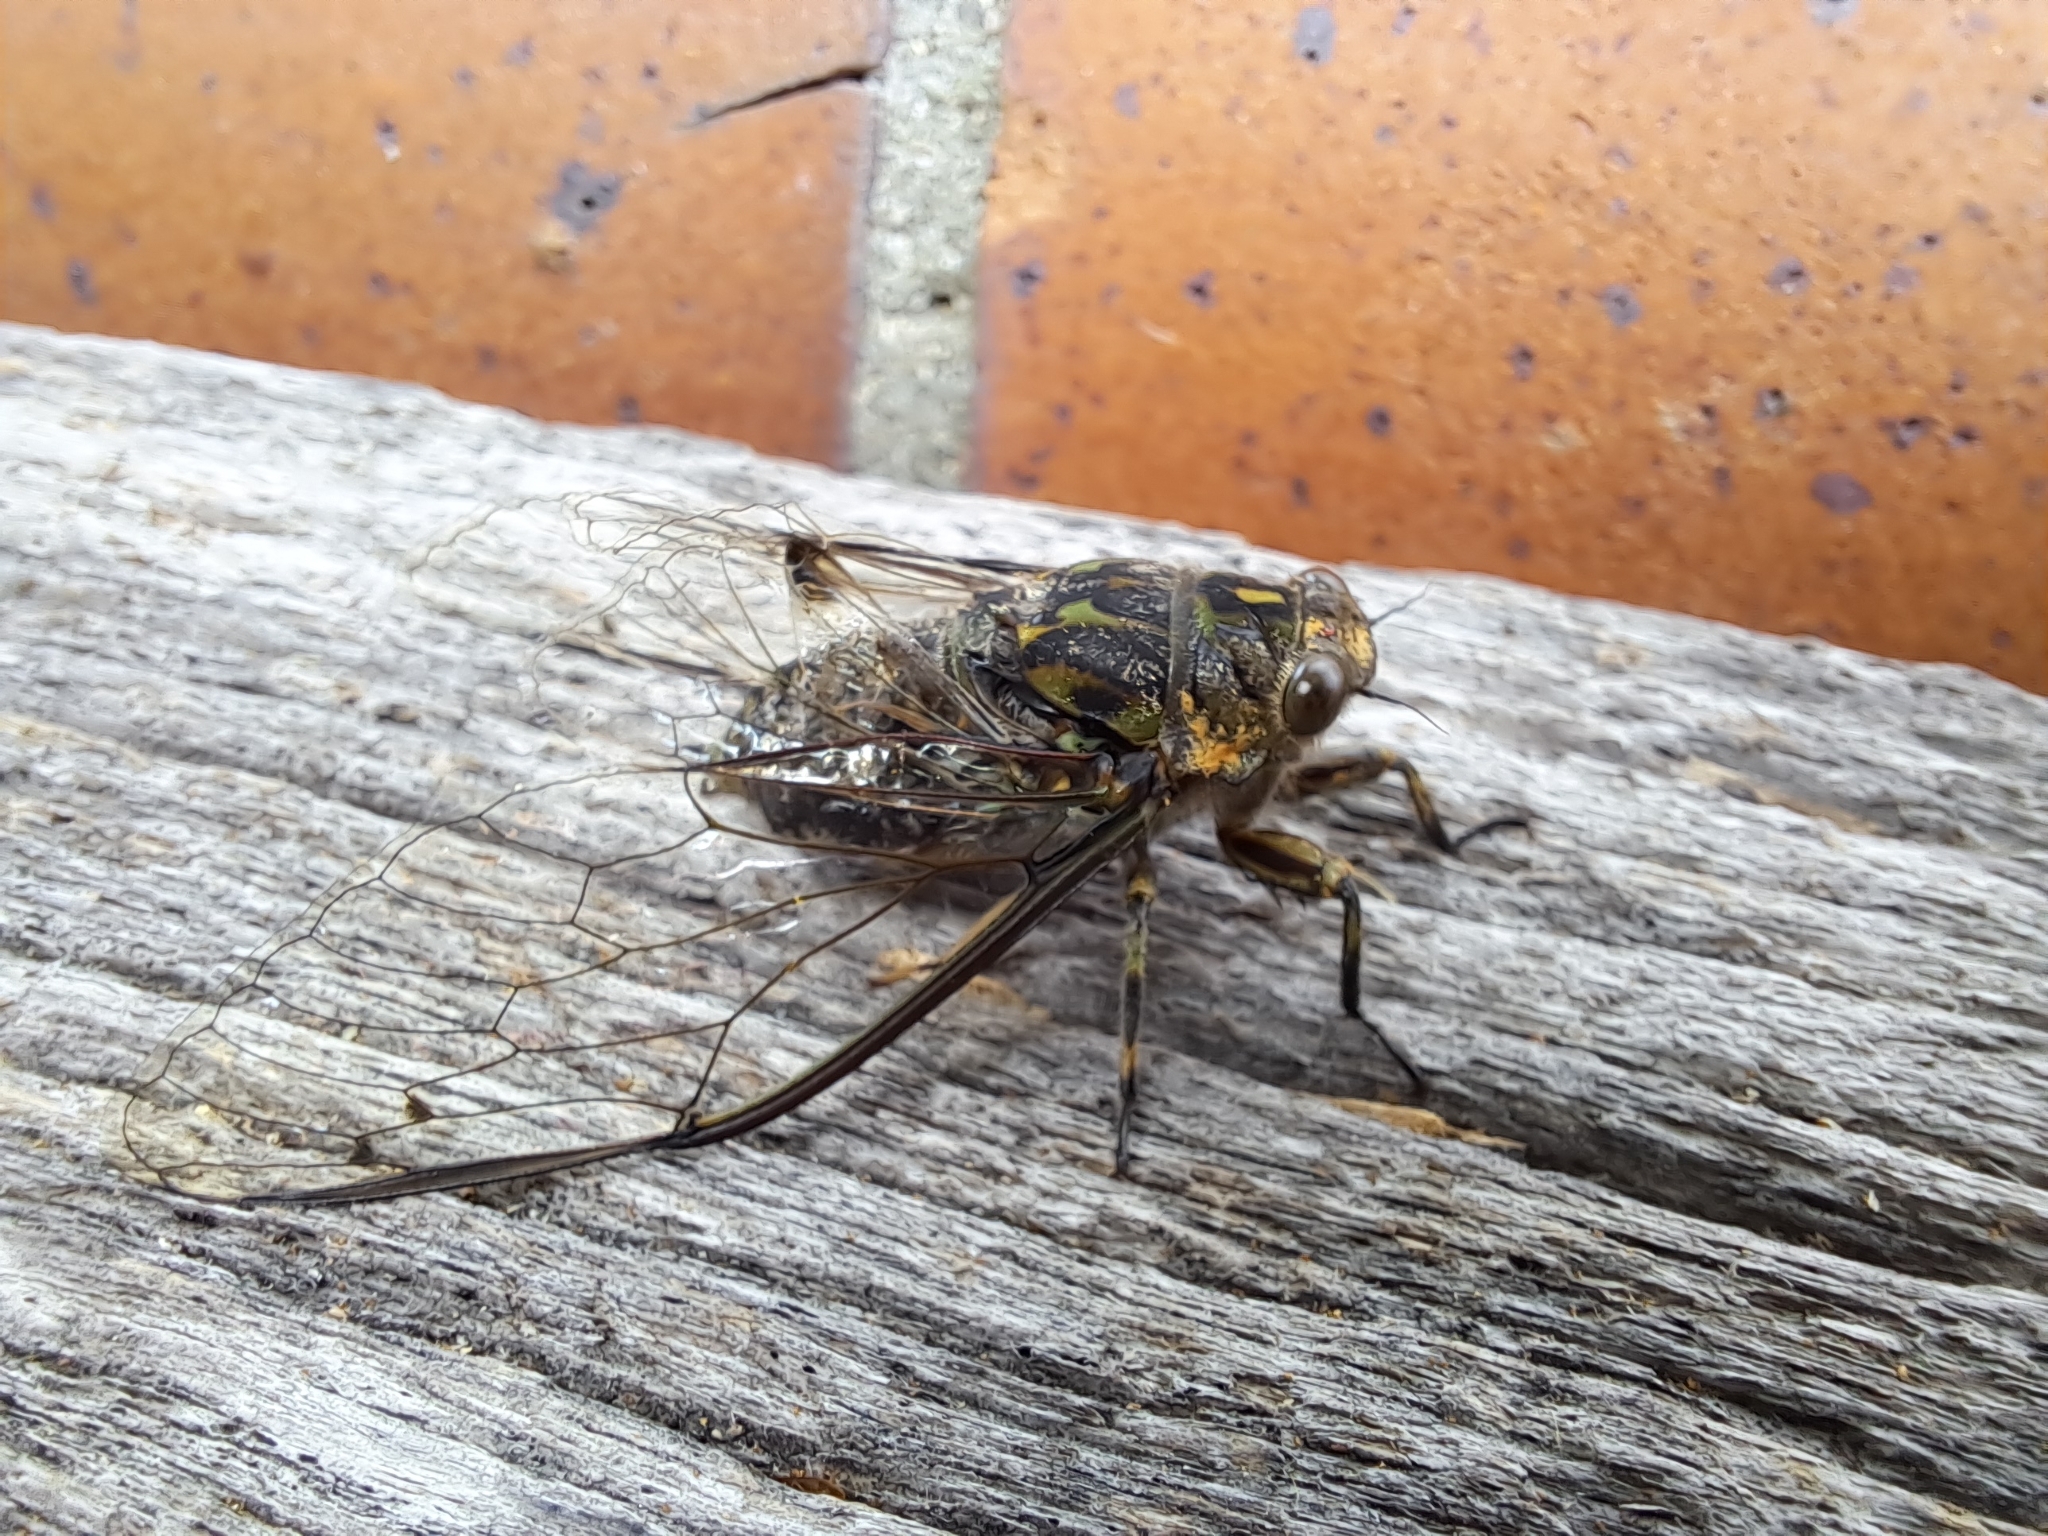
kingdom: Animalia
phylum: Arthropoda
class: Insecta
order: Hemiptera
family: Cicadidae
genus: Amphipsalta
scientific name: Amphipsalta cingulata
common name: Clapping cicada
